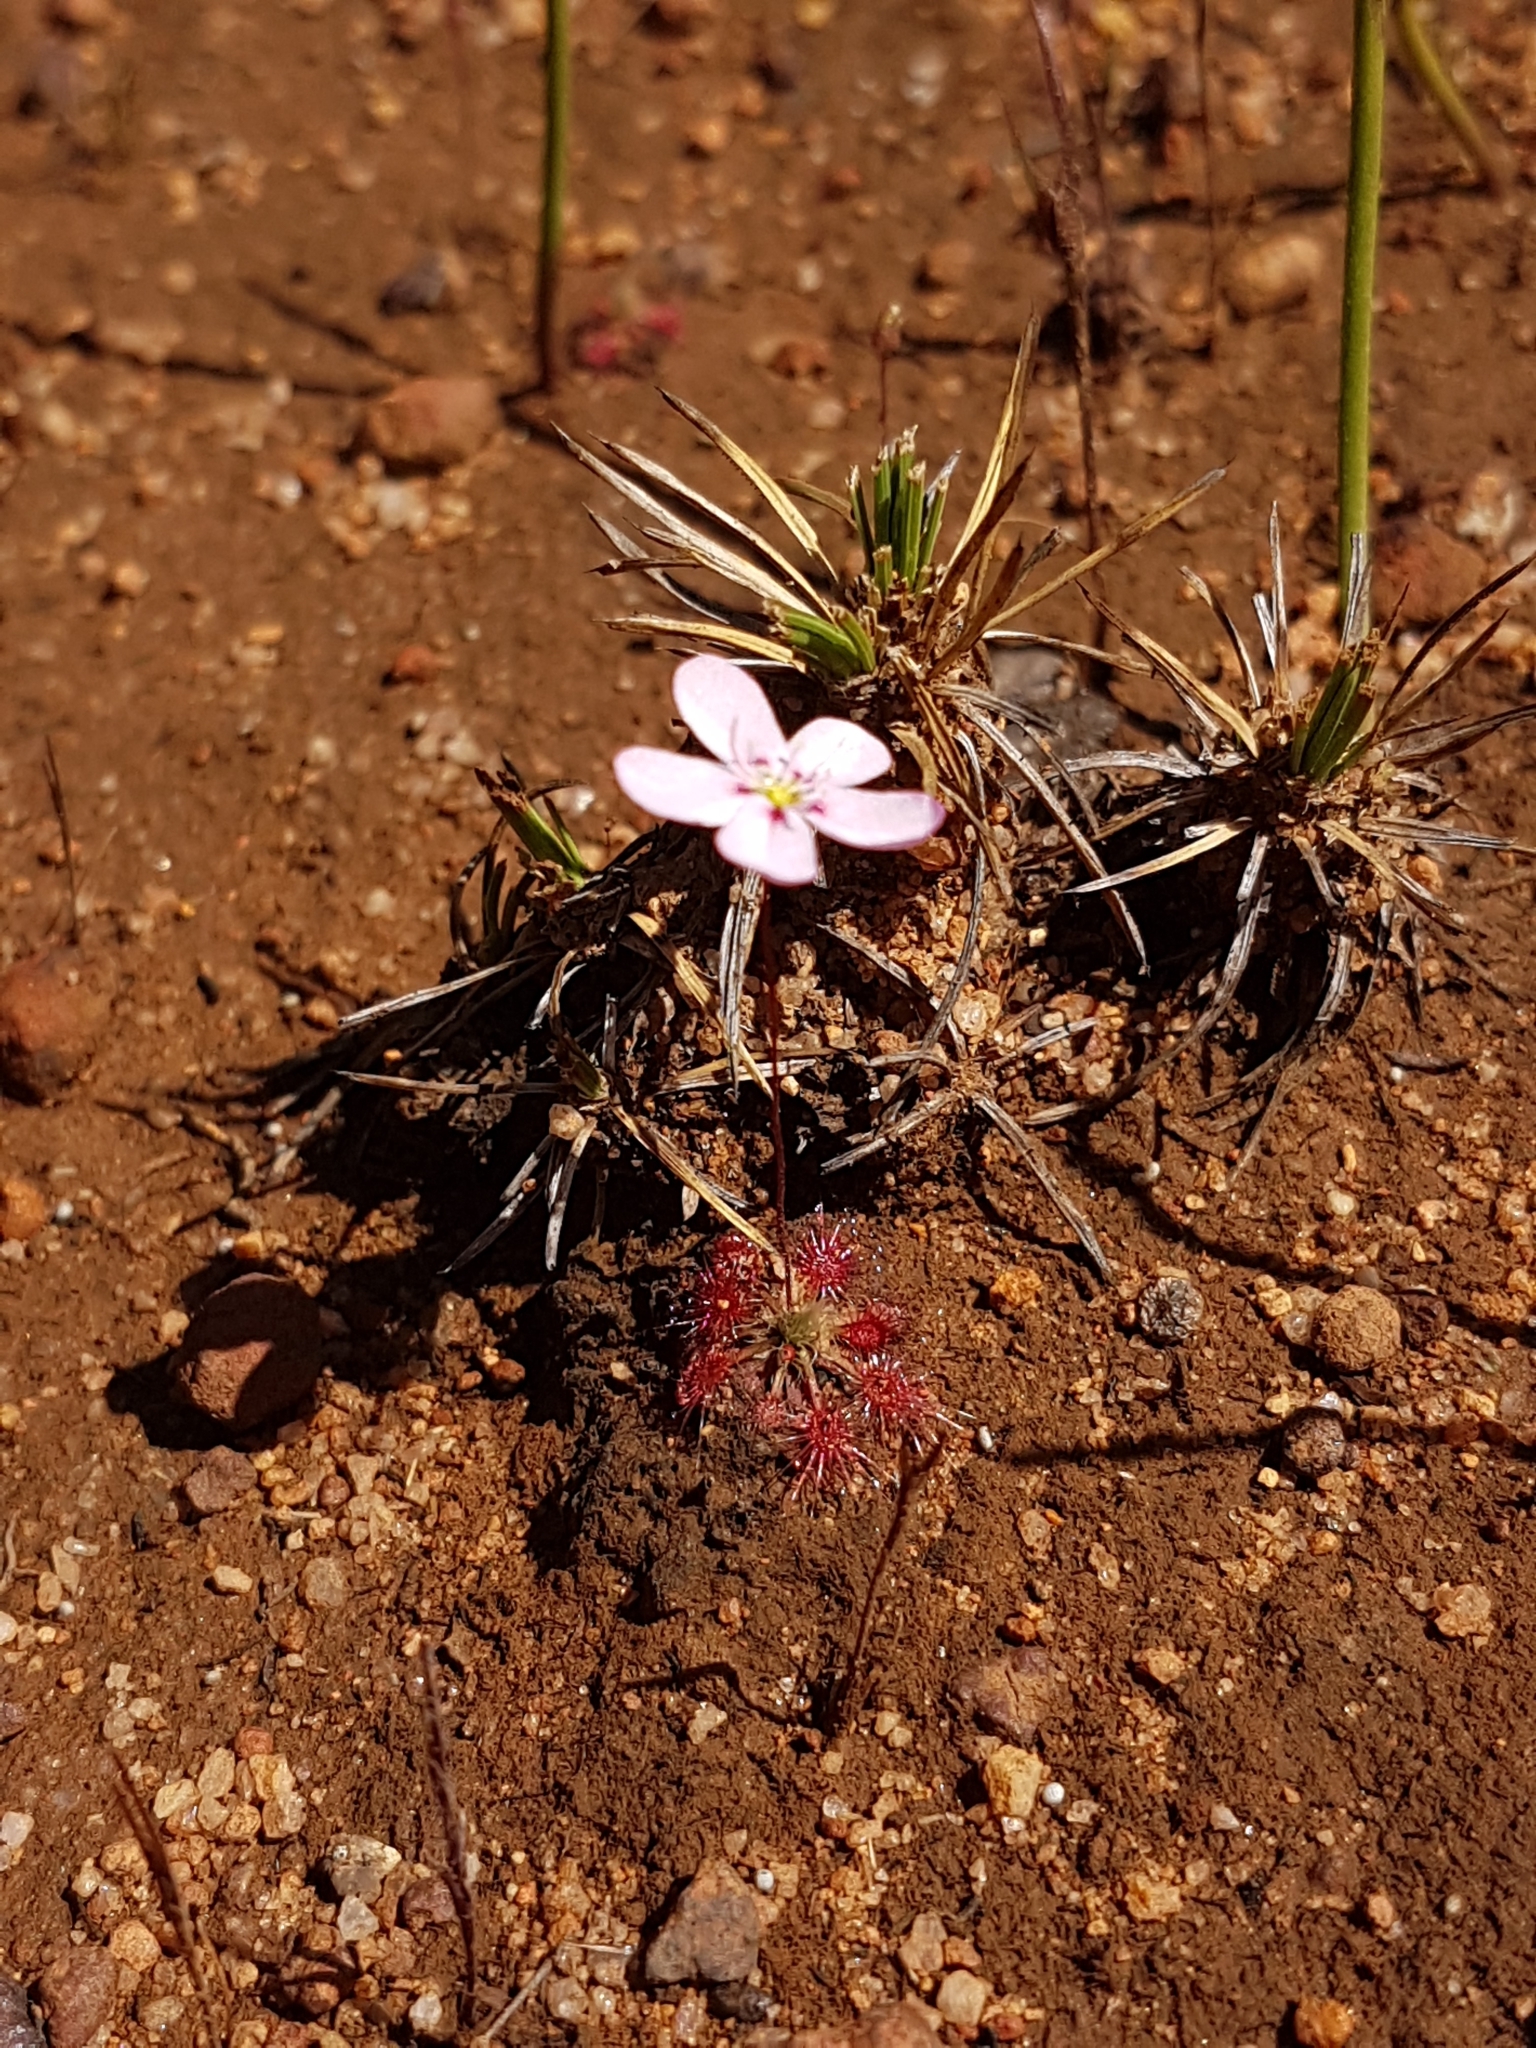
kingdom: Plantae
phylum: Tracheophyta
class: Magnoliopsida
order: Caryophyllales
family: Droseraceae
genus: Drosera
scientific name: Drosera spilos
